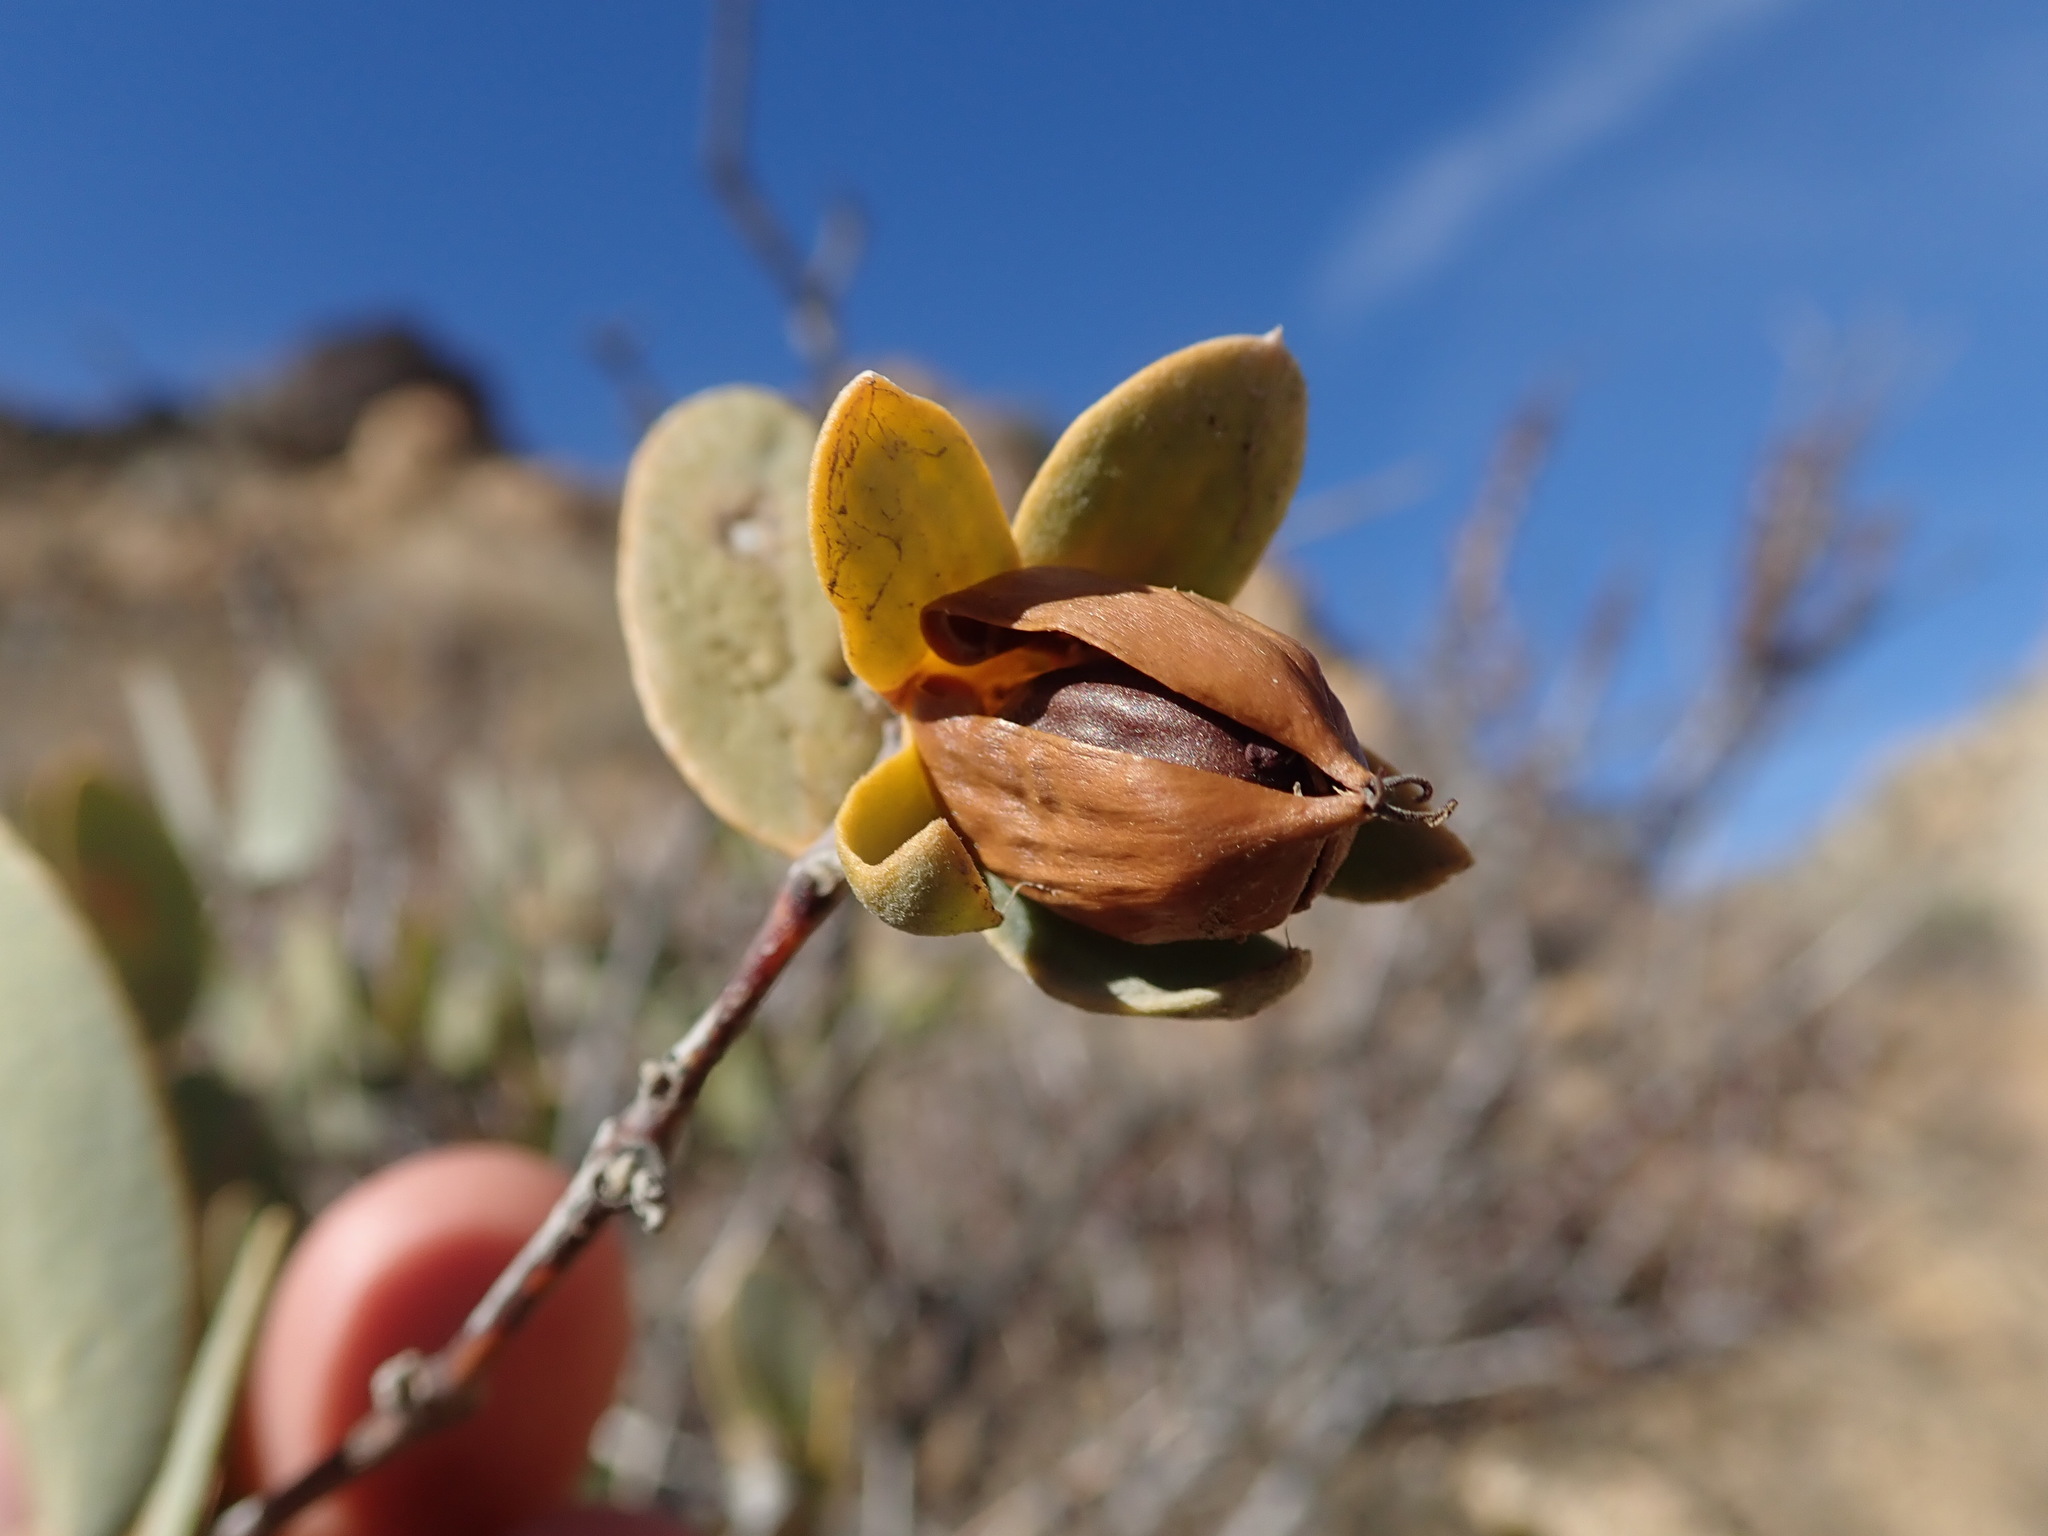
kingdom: Plantae
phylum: Tracheophyta
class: Magnoliopsida
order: Caryophyllales
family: Simmondsiaceae
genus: Simmondsia
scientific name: Simmondsia chinensis
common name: Jojoba
